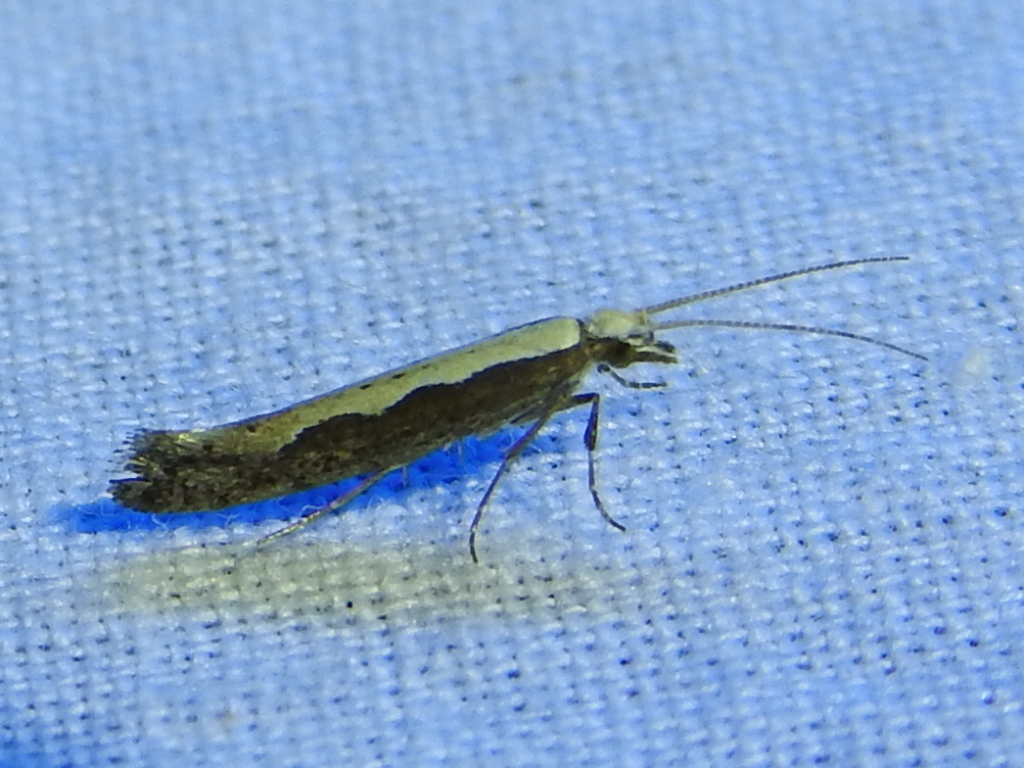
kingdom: Animalia
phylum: Arthropoda
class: Insecta
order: Lepidoptera
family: Plutellidae
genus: Plutella
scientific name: Plutella xylostella
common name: Diamond-back moth
